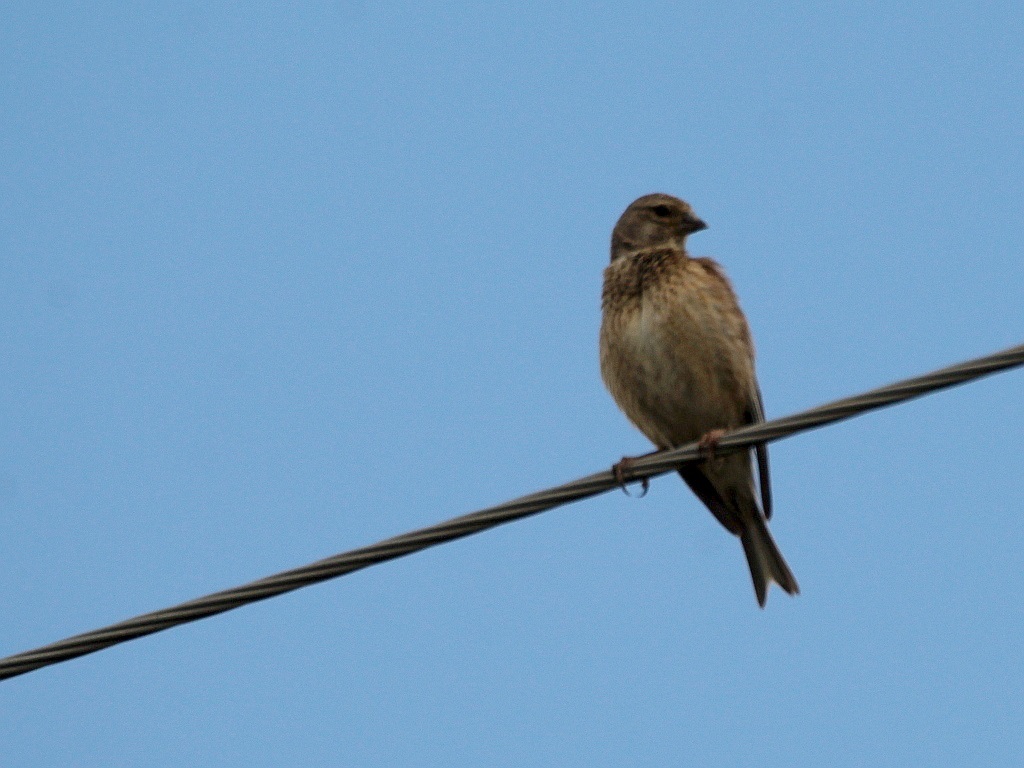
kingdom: Animalia
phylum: Chordata
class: Aves
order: Passeriformes
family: Fringillidae
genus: Linaria
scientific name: Linaria cannabina
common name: Common linnet
